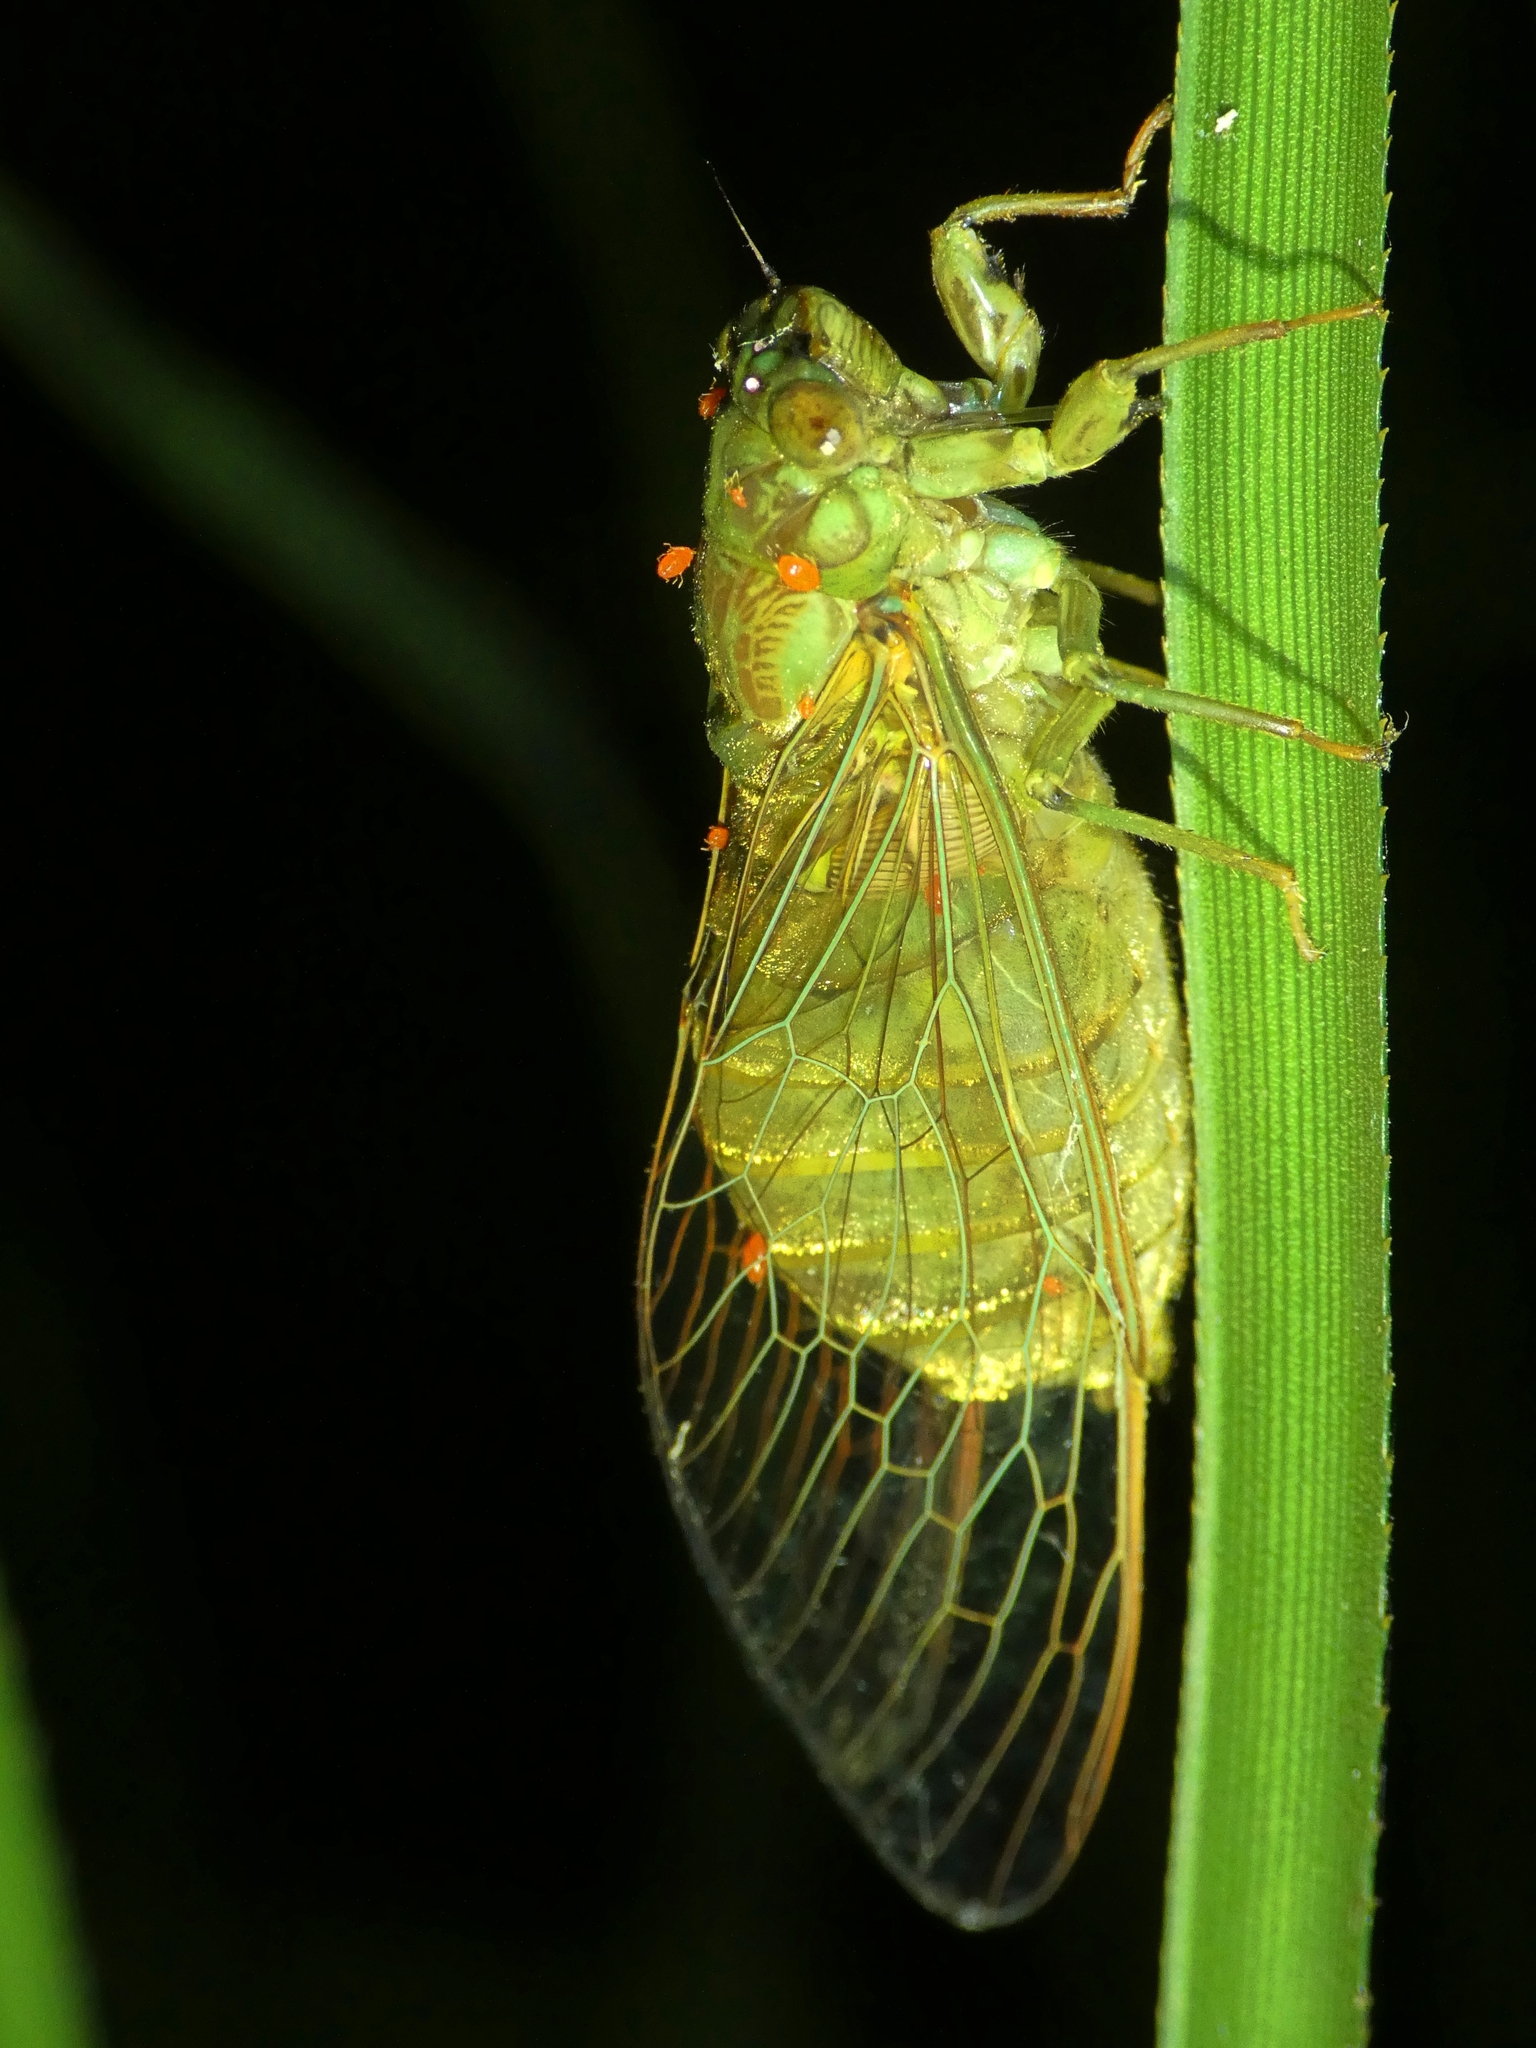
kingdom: Animalia
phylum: Arthropoda
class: Insecta
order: Hemiptera
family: Cicadidae
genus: Chlorocysta
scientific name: Chlorocysta suffusa
